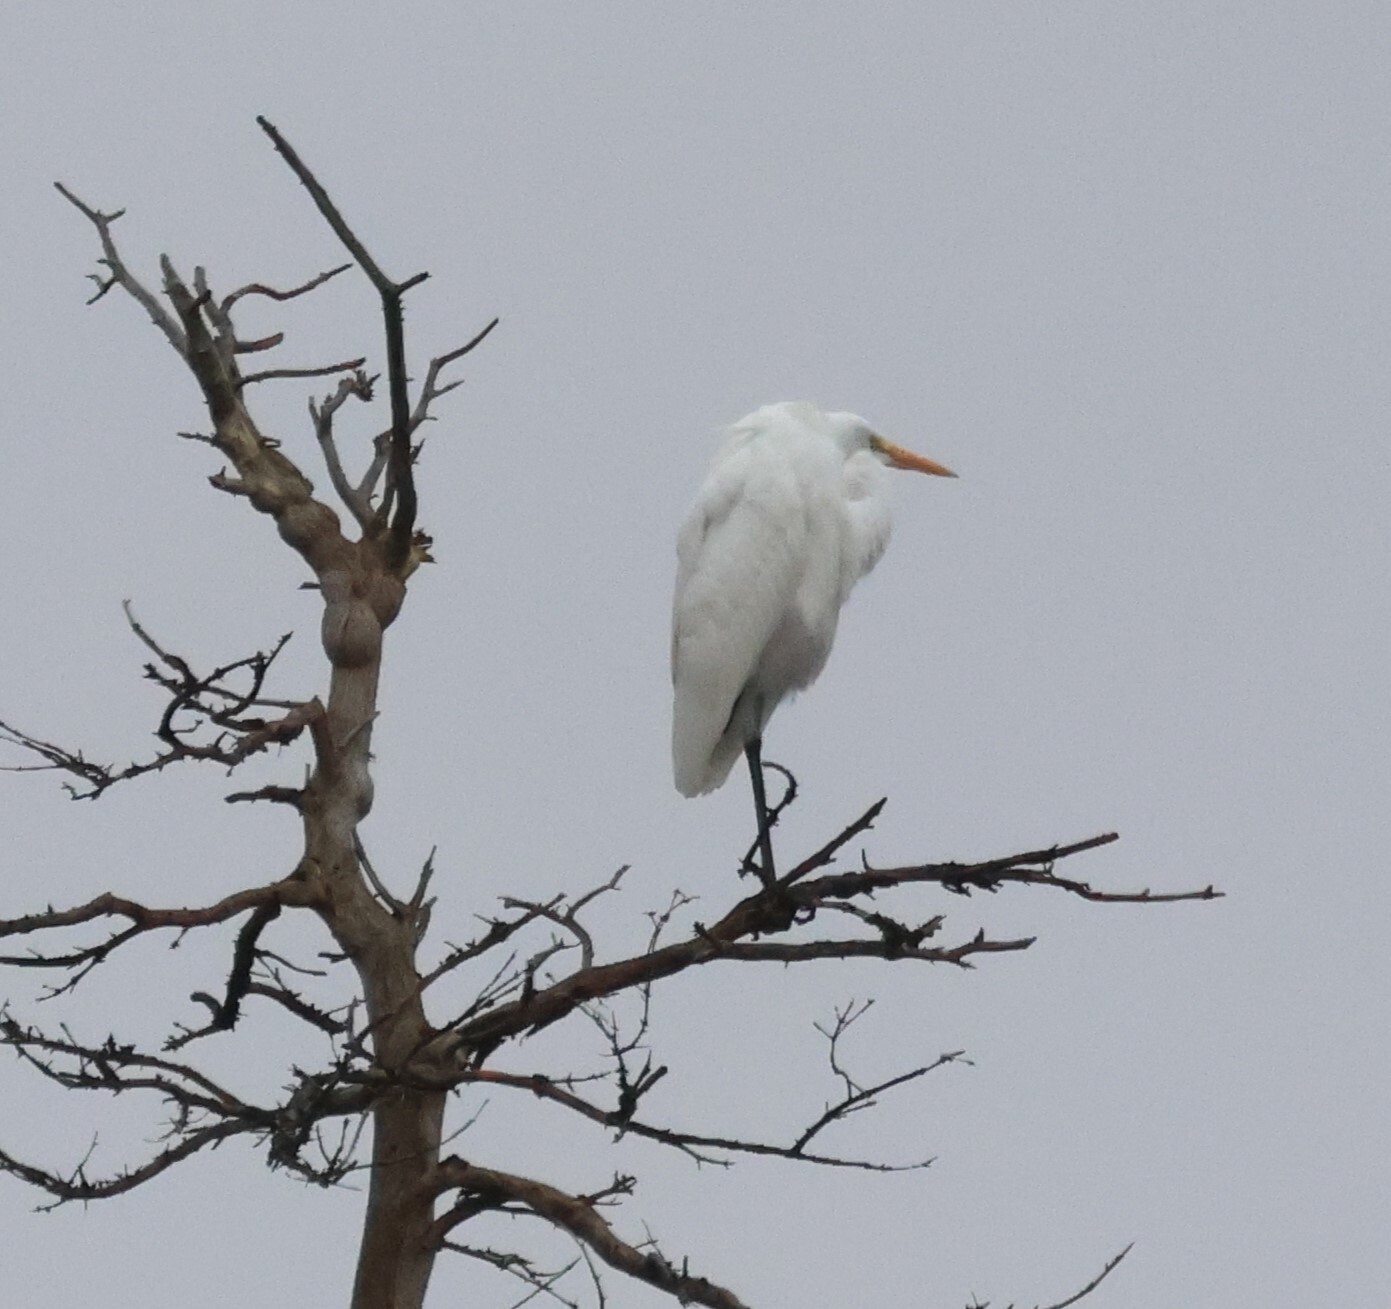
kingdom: Animalia
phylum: Chordata
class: Aves
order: Pelecaniformes
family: Ardeidae
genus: Ardea
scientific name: Ardea alba
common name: Great egret
